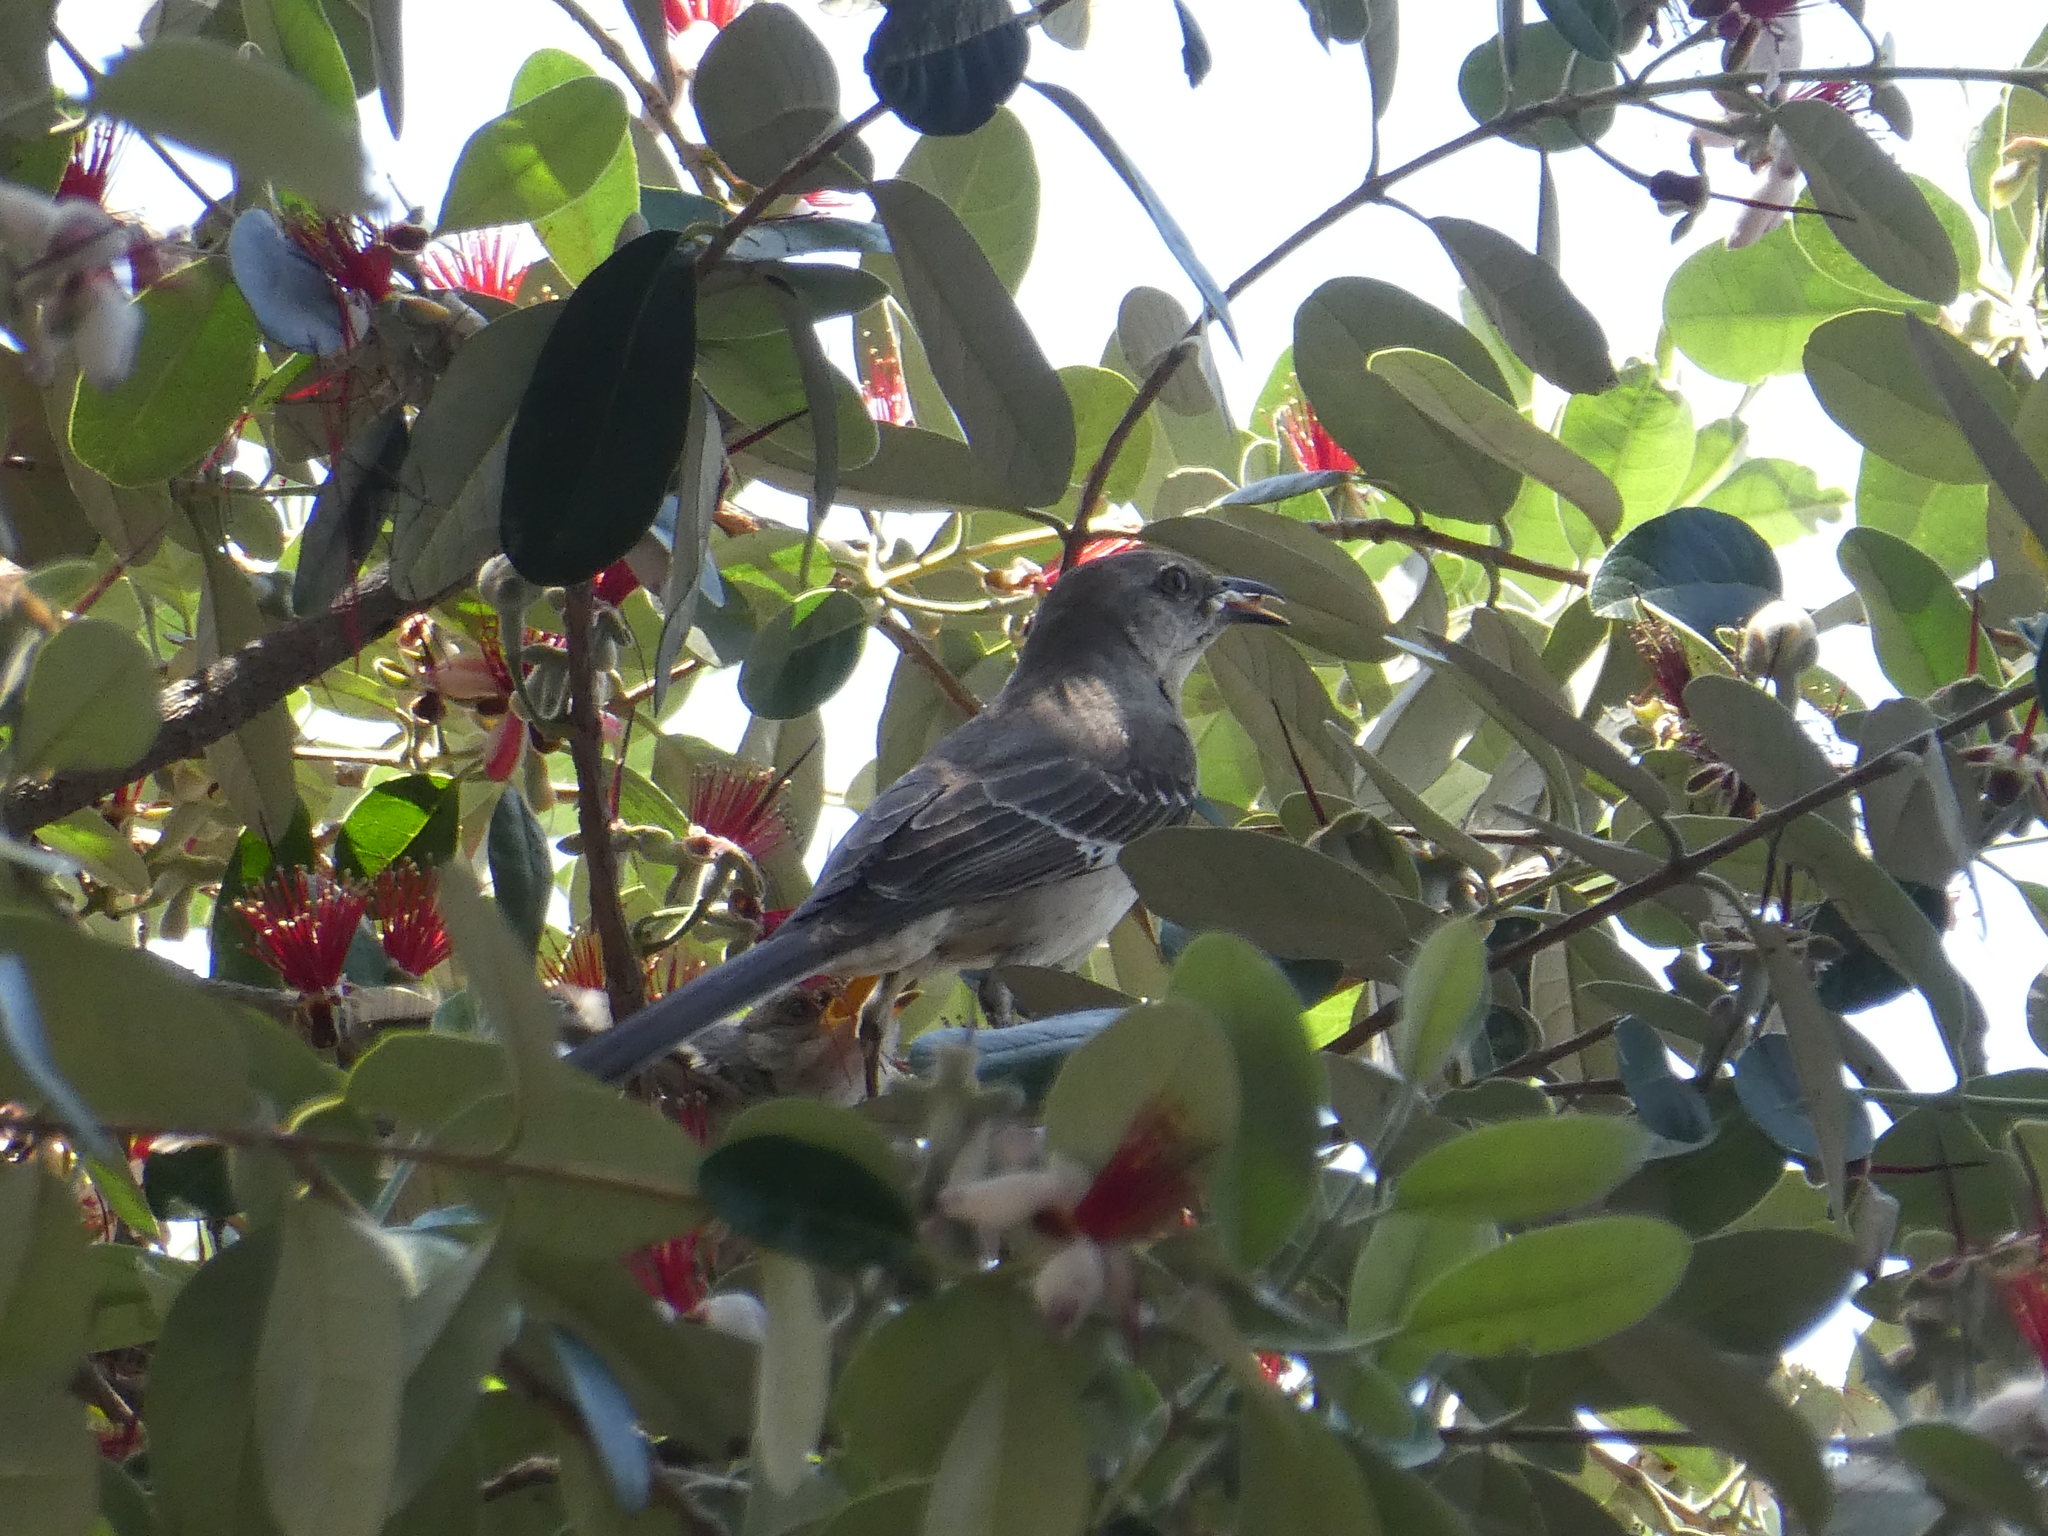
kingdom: Animalia
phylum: Chordata
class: Aves
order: Passeriformes
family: Mimidae
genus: Mimus
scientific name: Mimus polyglottos
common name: Northern mockingbird
